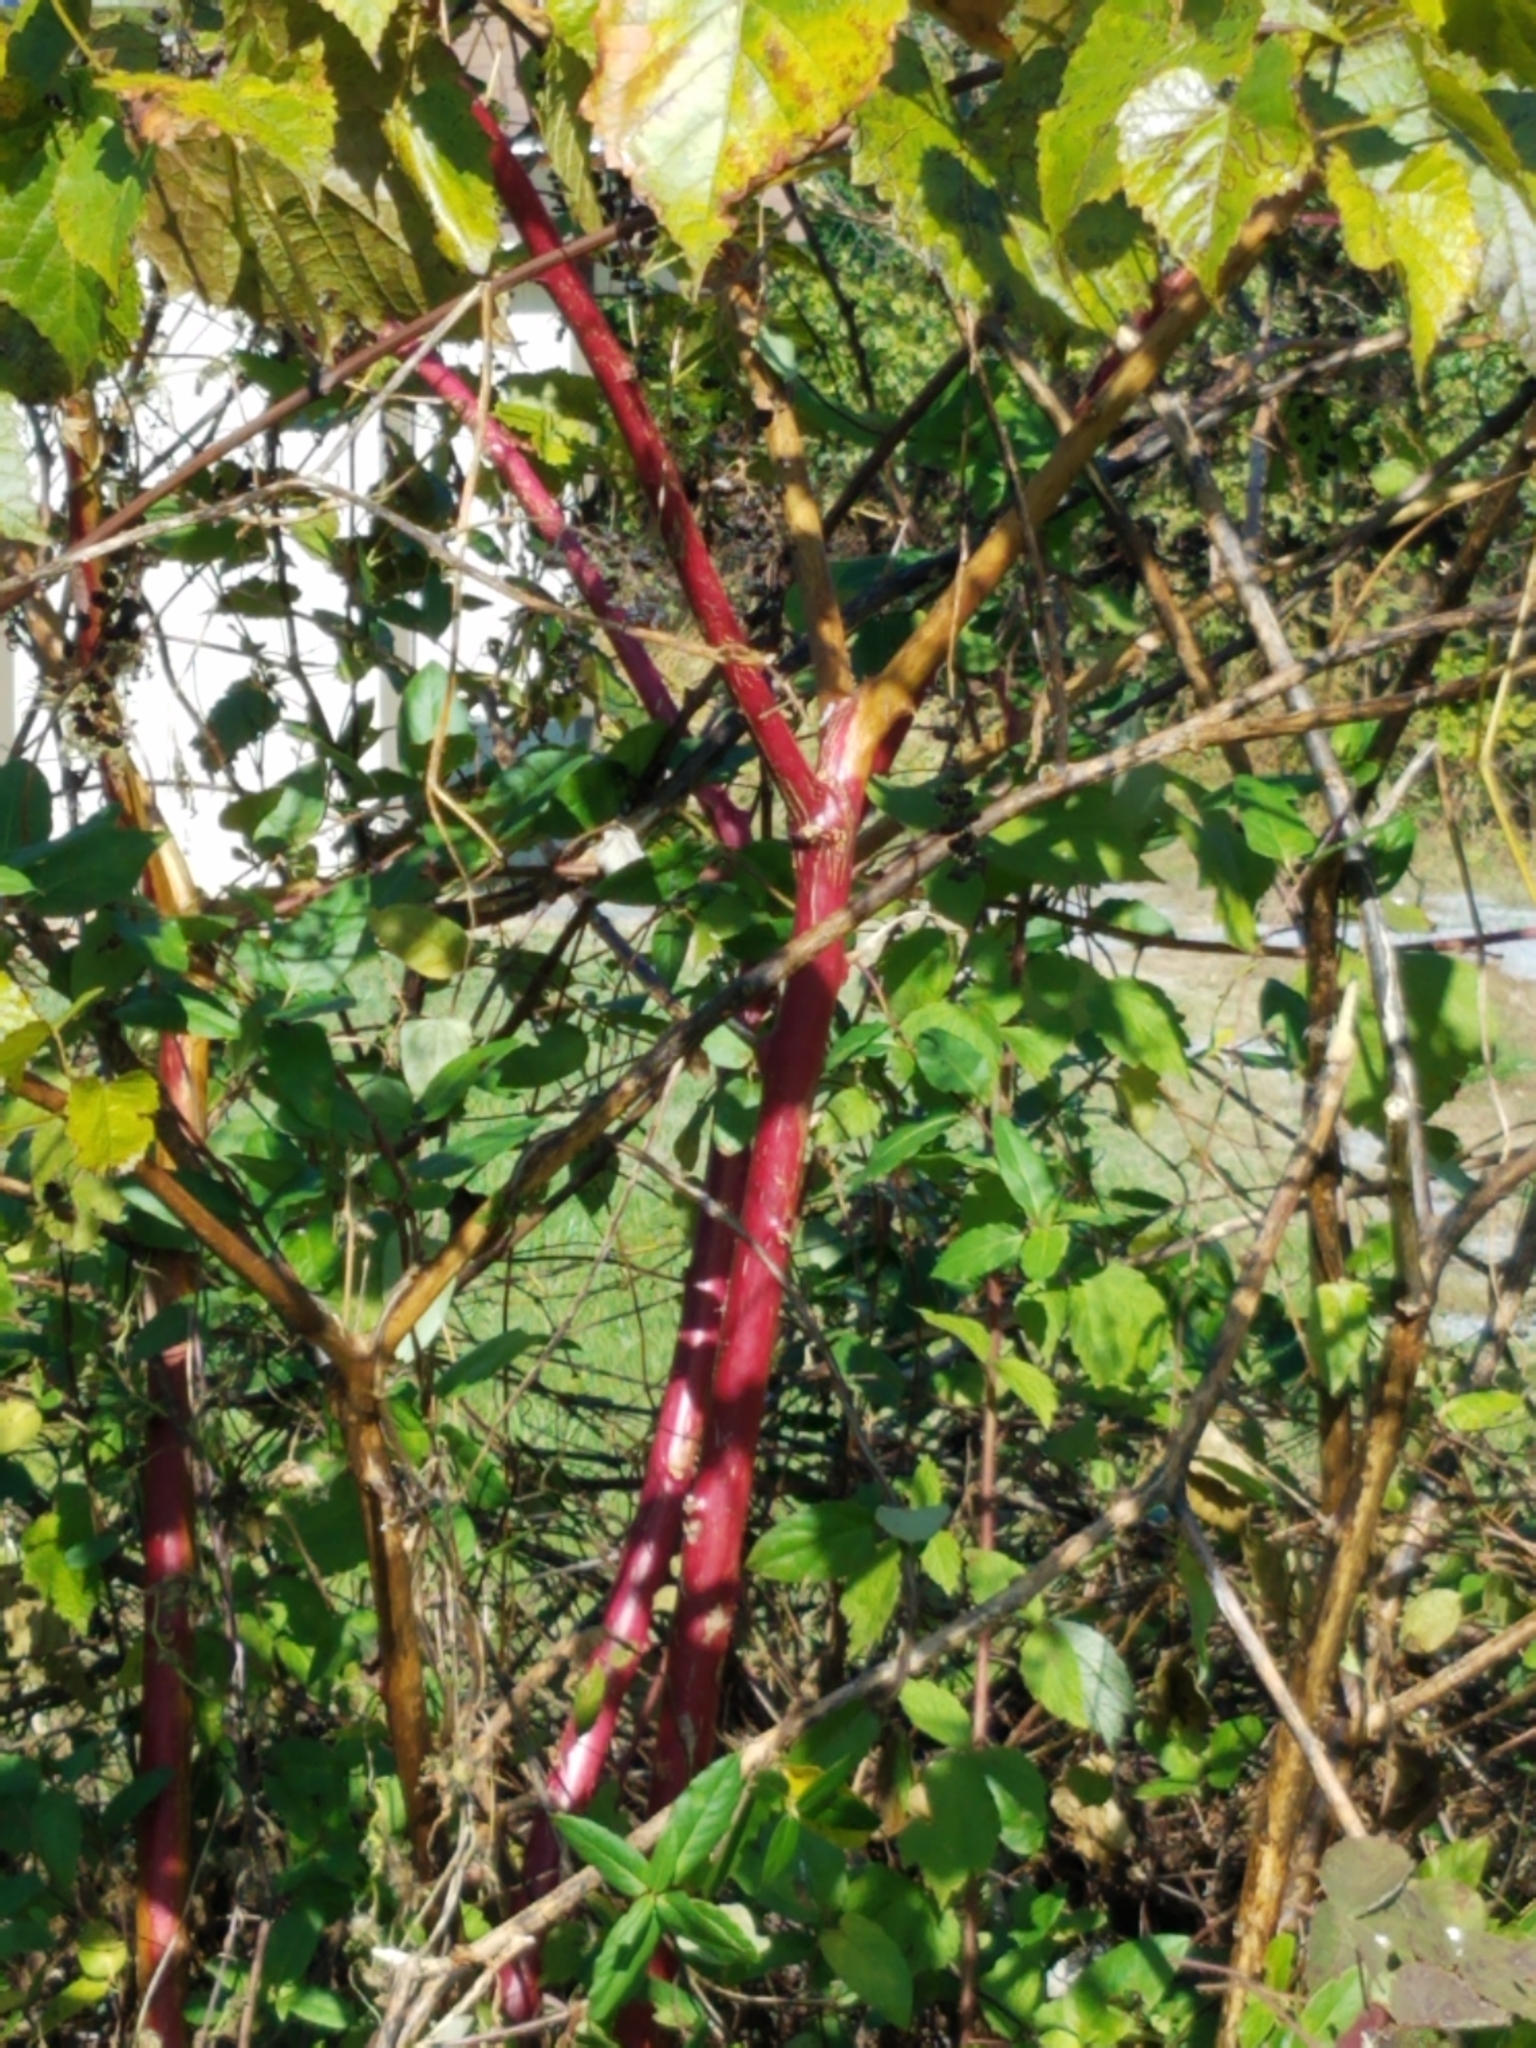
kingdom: Plantae
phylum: Tracheophyta
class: Magnoliopsida
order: Caryophyllales
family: Phytolaccaceae
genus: Phytolacca
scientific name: Phytolacca americana
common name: American pokeweed
